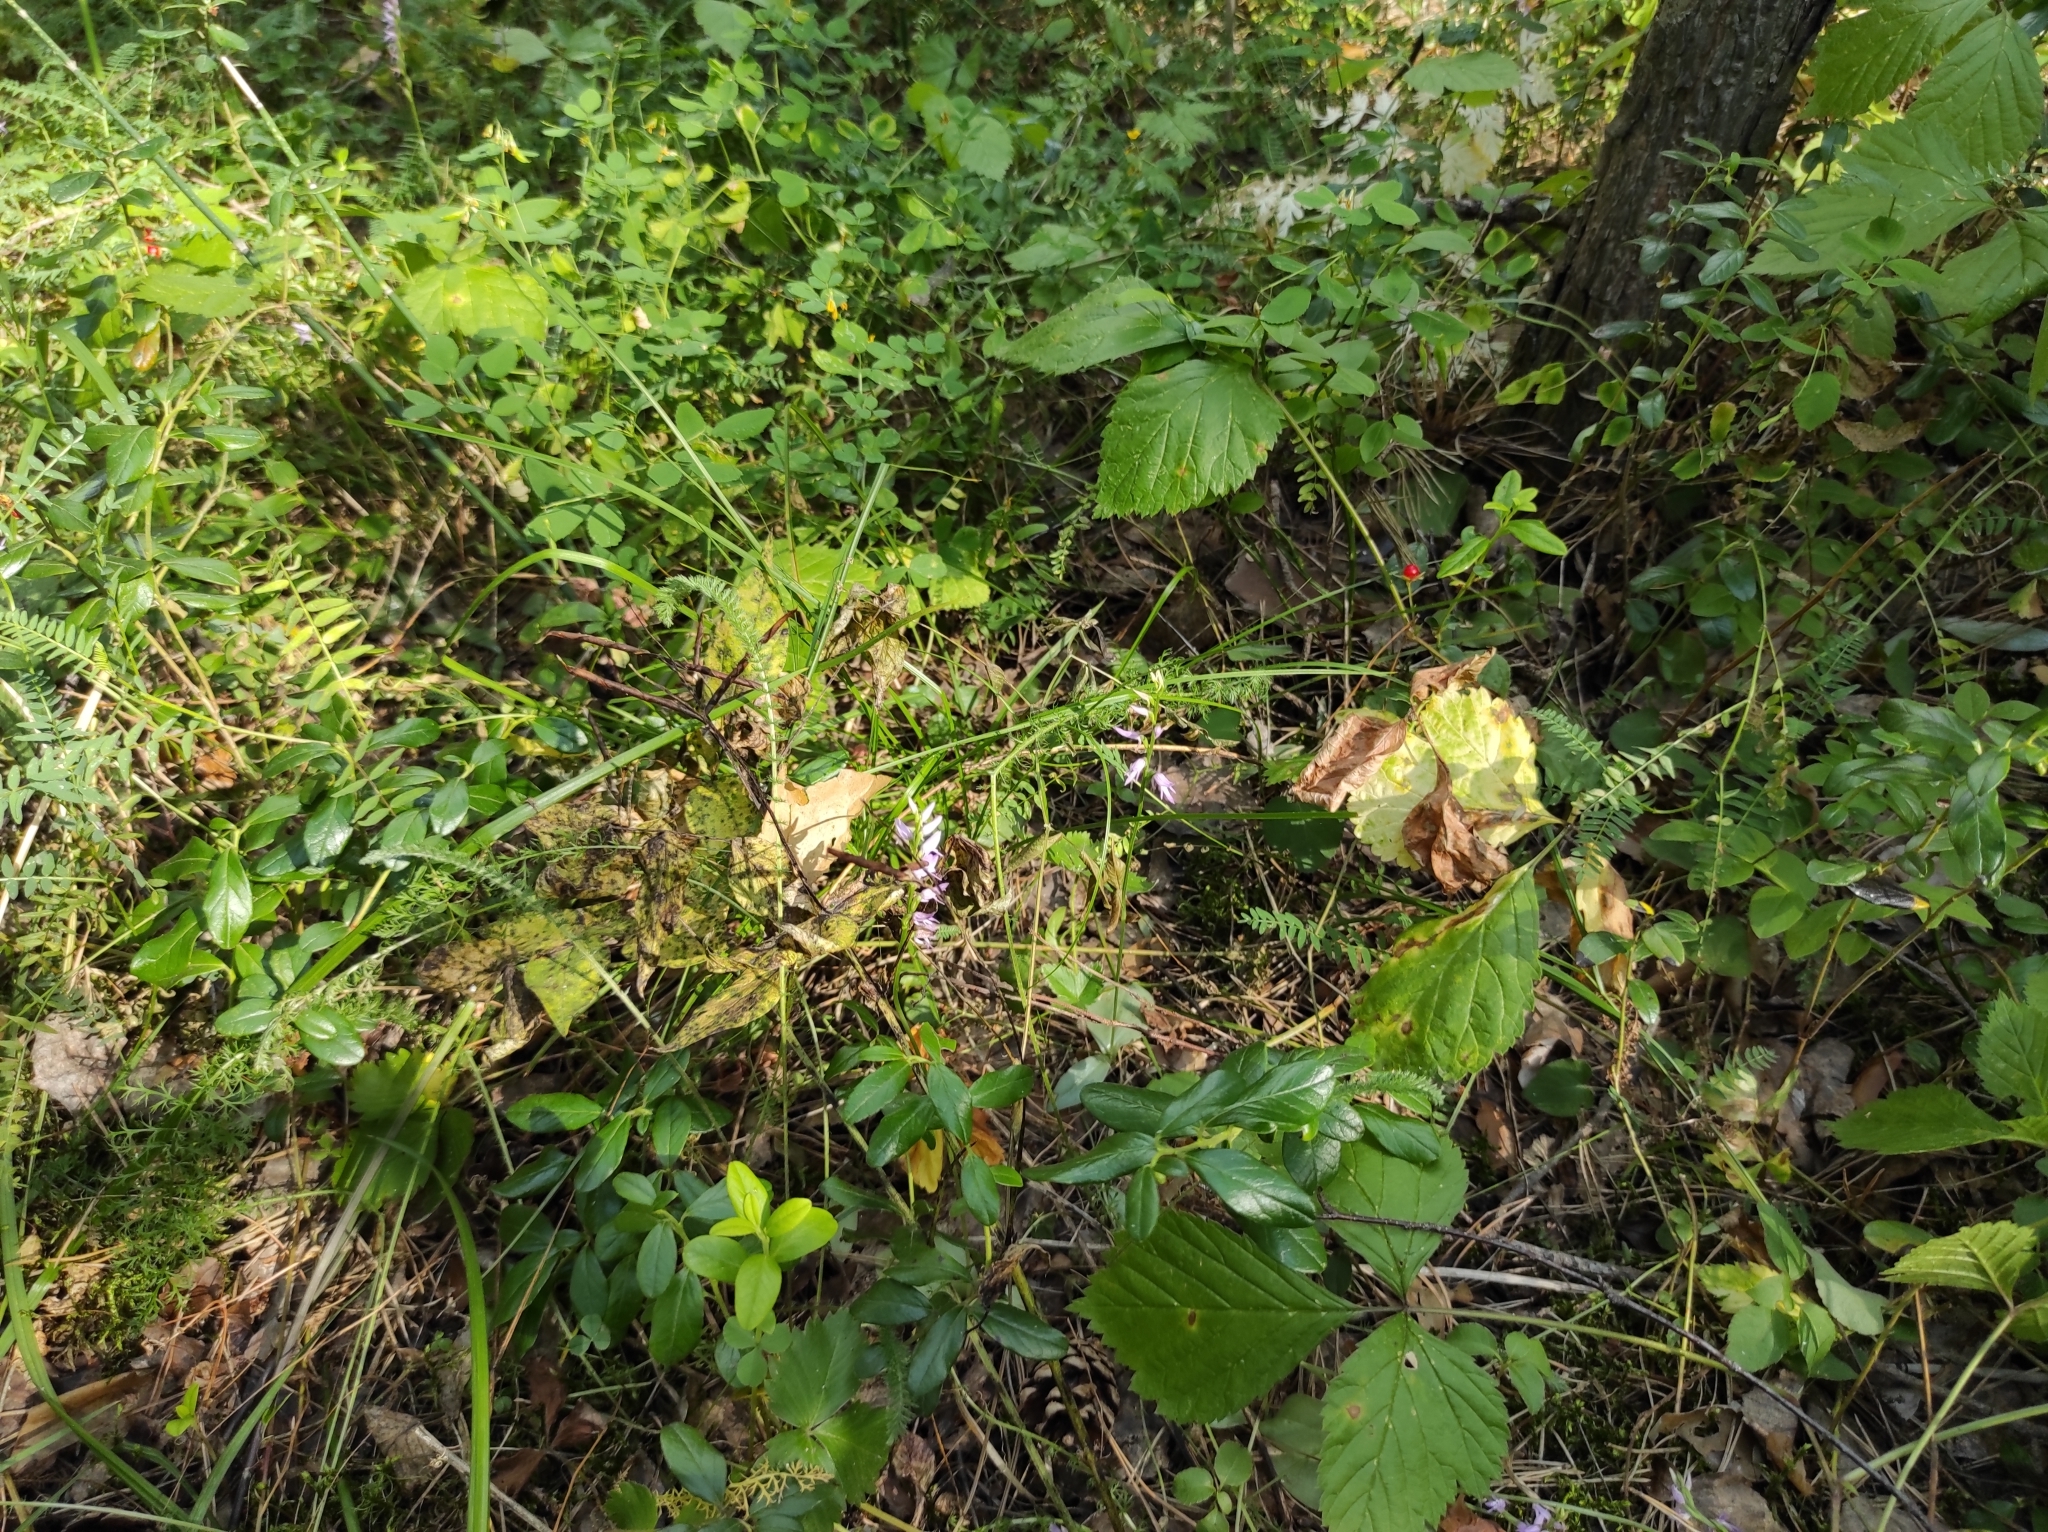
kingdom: Plantae
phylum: Tracheophyta
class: Liliopsida
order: Asparagales
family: Orchidaceae
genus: Hemipilia
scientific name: Hemipilia cucullata
